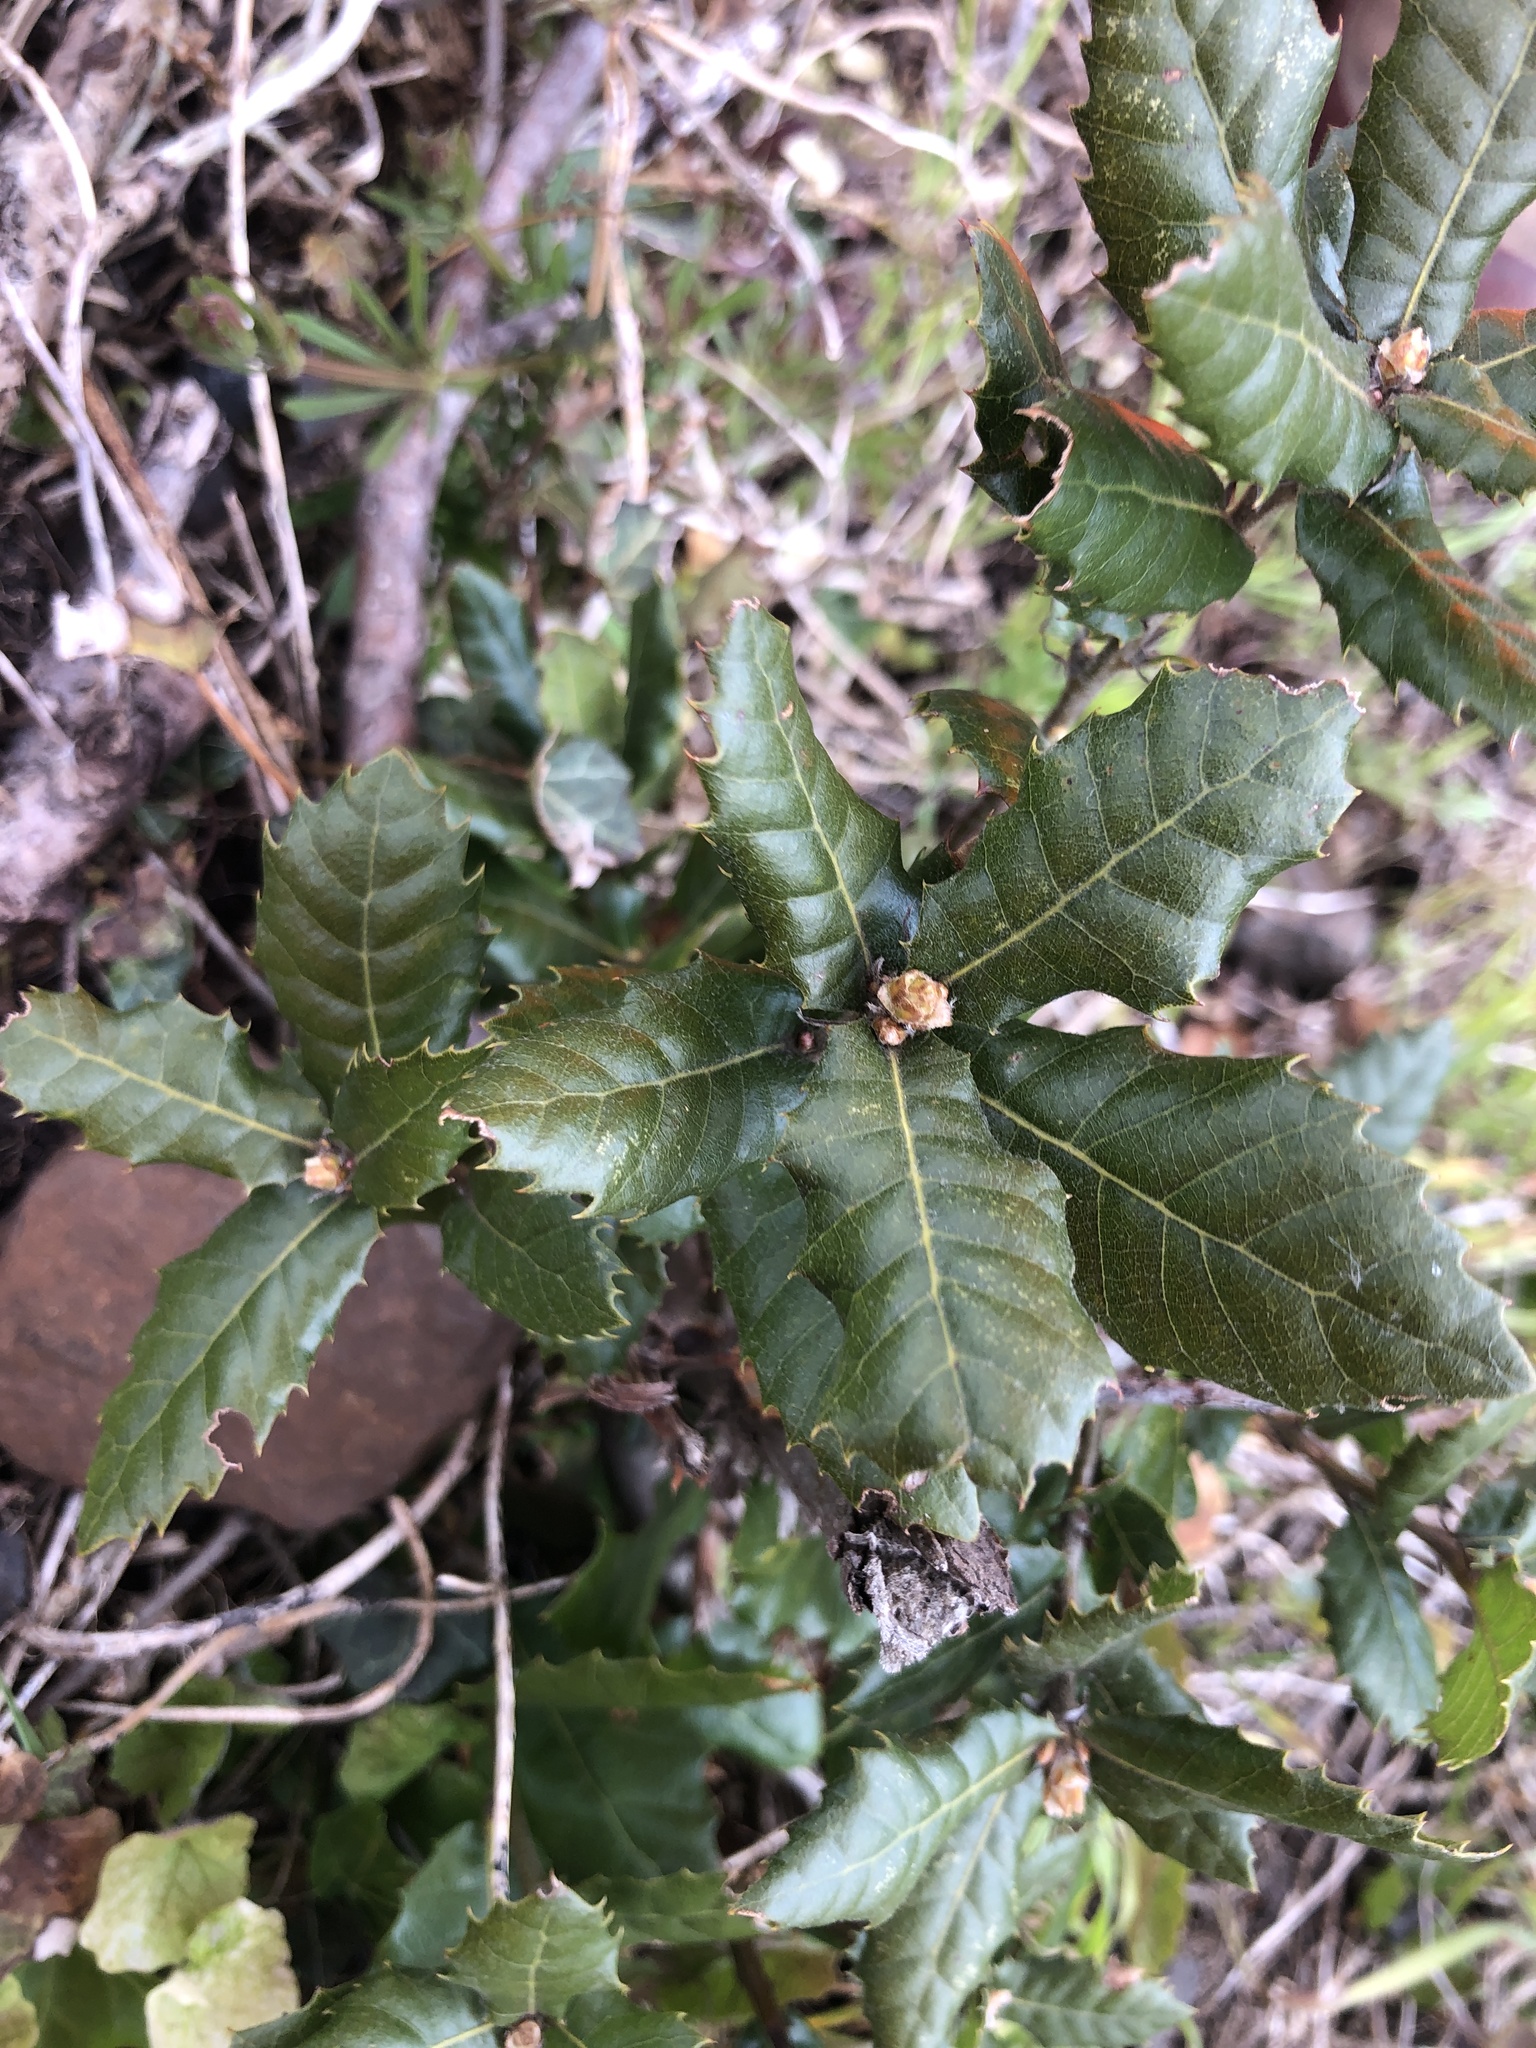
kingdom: Plantae
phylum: Tracheophyta
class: Magnoliopsida
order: Fagales
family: Fagaceae
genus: Quercus
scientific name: Quercus ilex
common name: Evergreen oak
